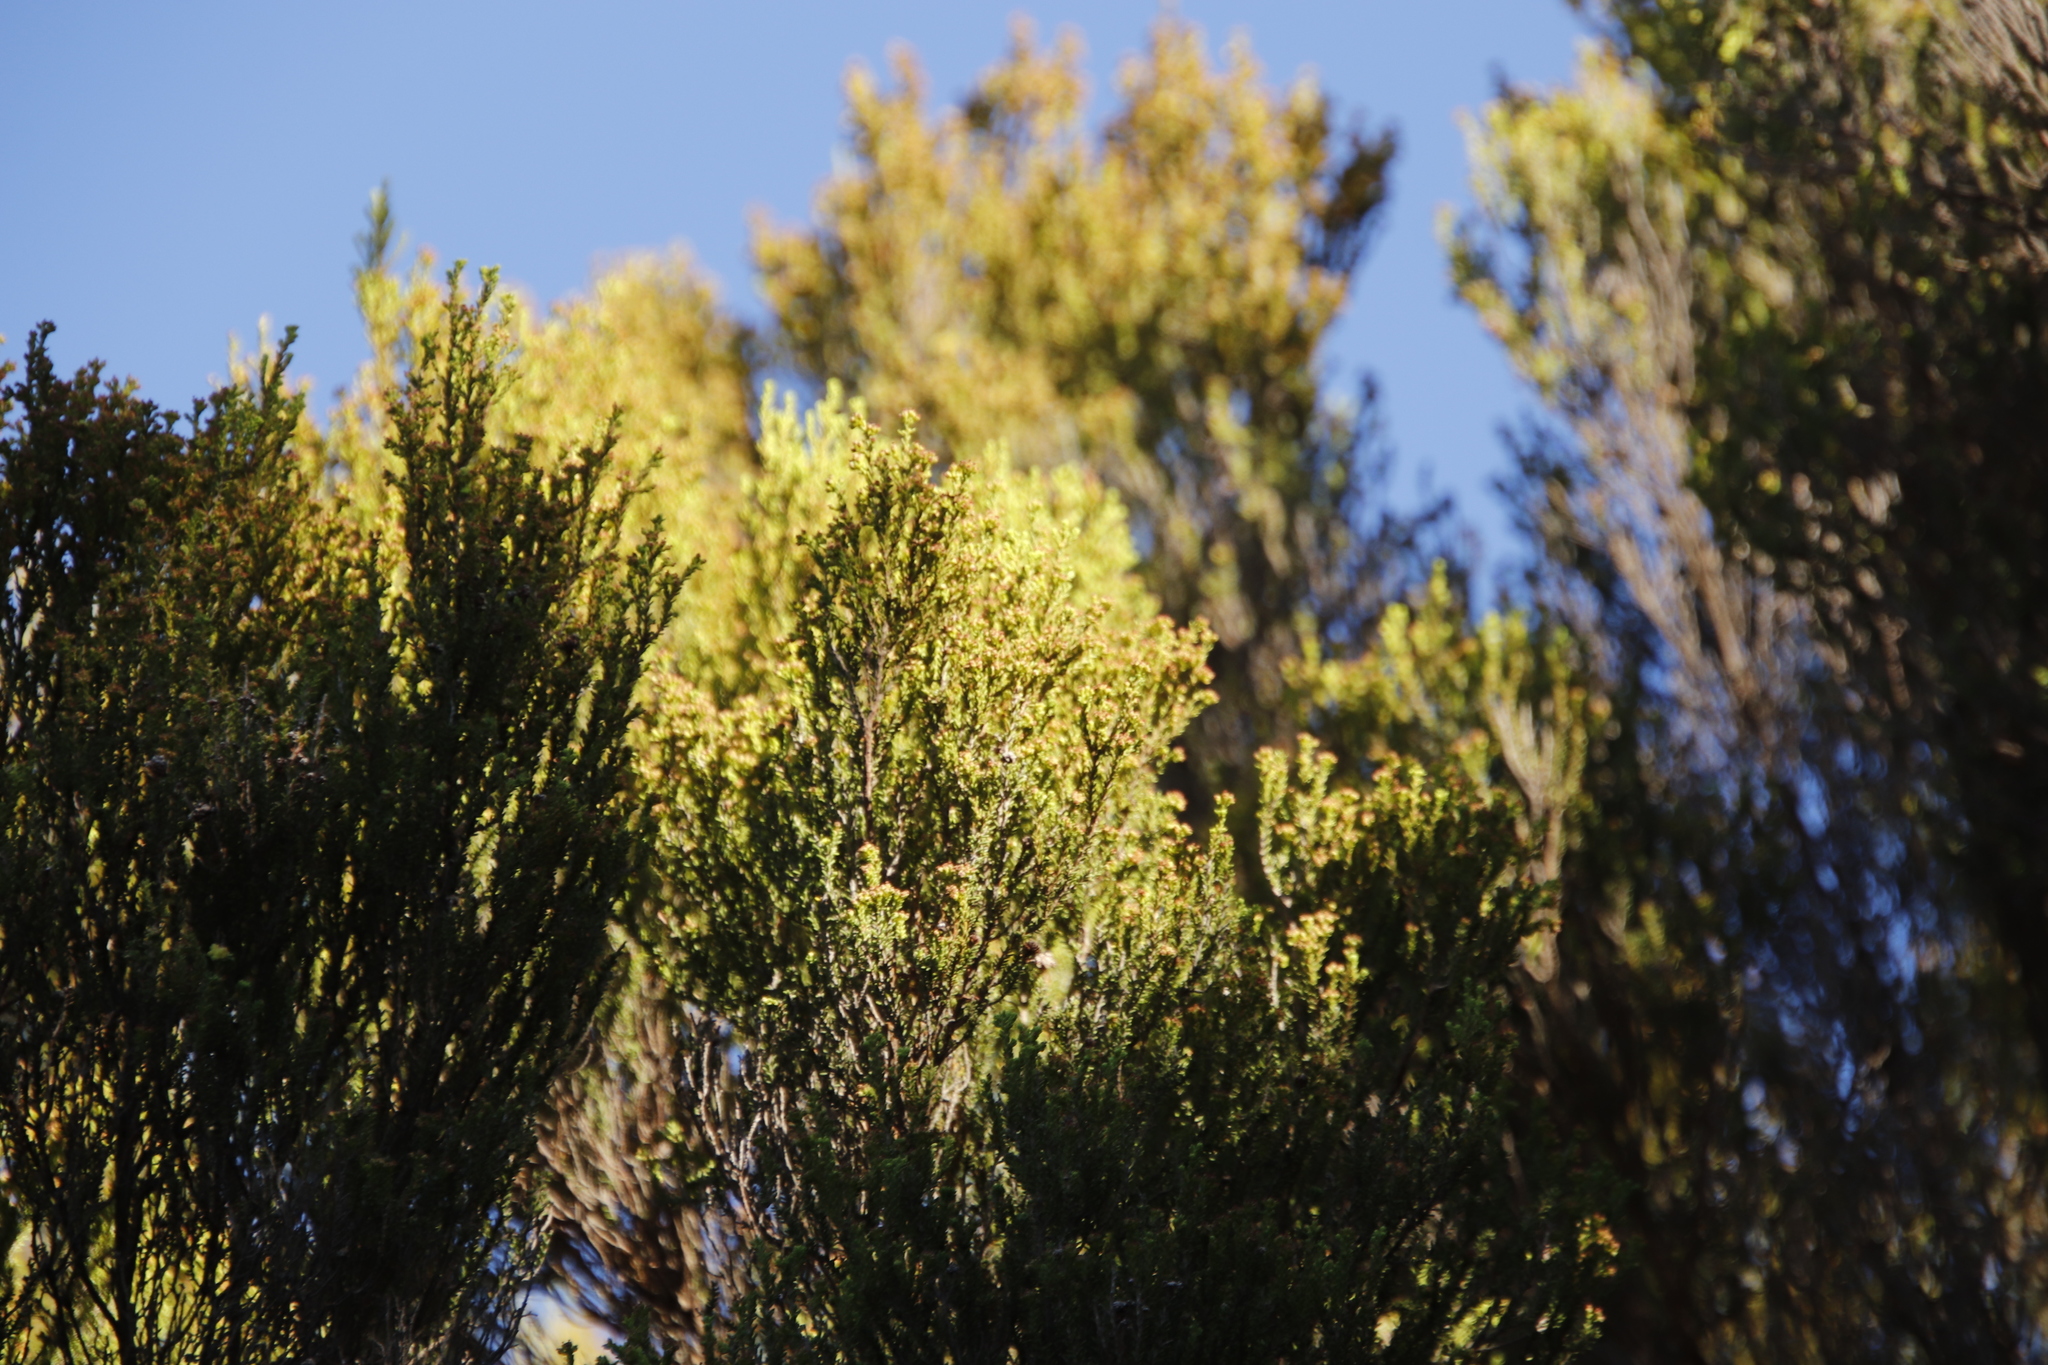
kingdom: Plantae
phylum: Tracheophyta
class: Magnoliopsida
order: Ericales
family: Ericaceae
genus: Erica
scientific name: Erica tristis
